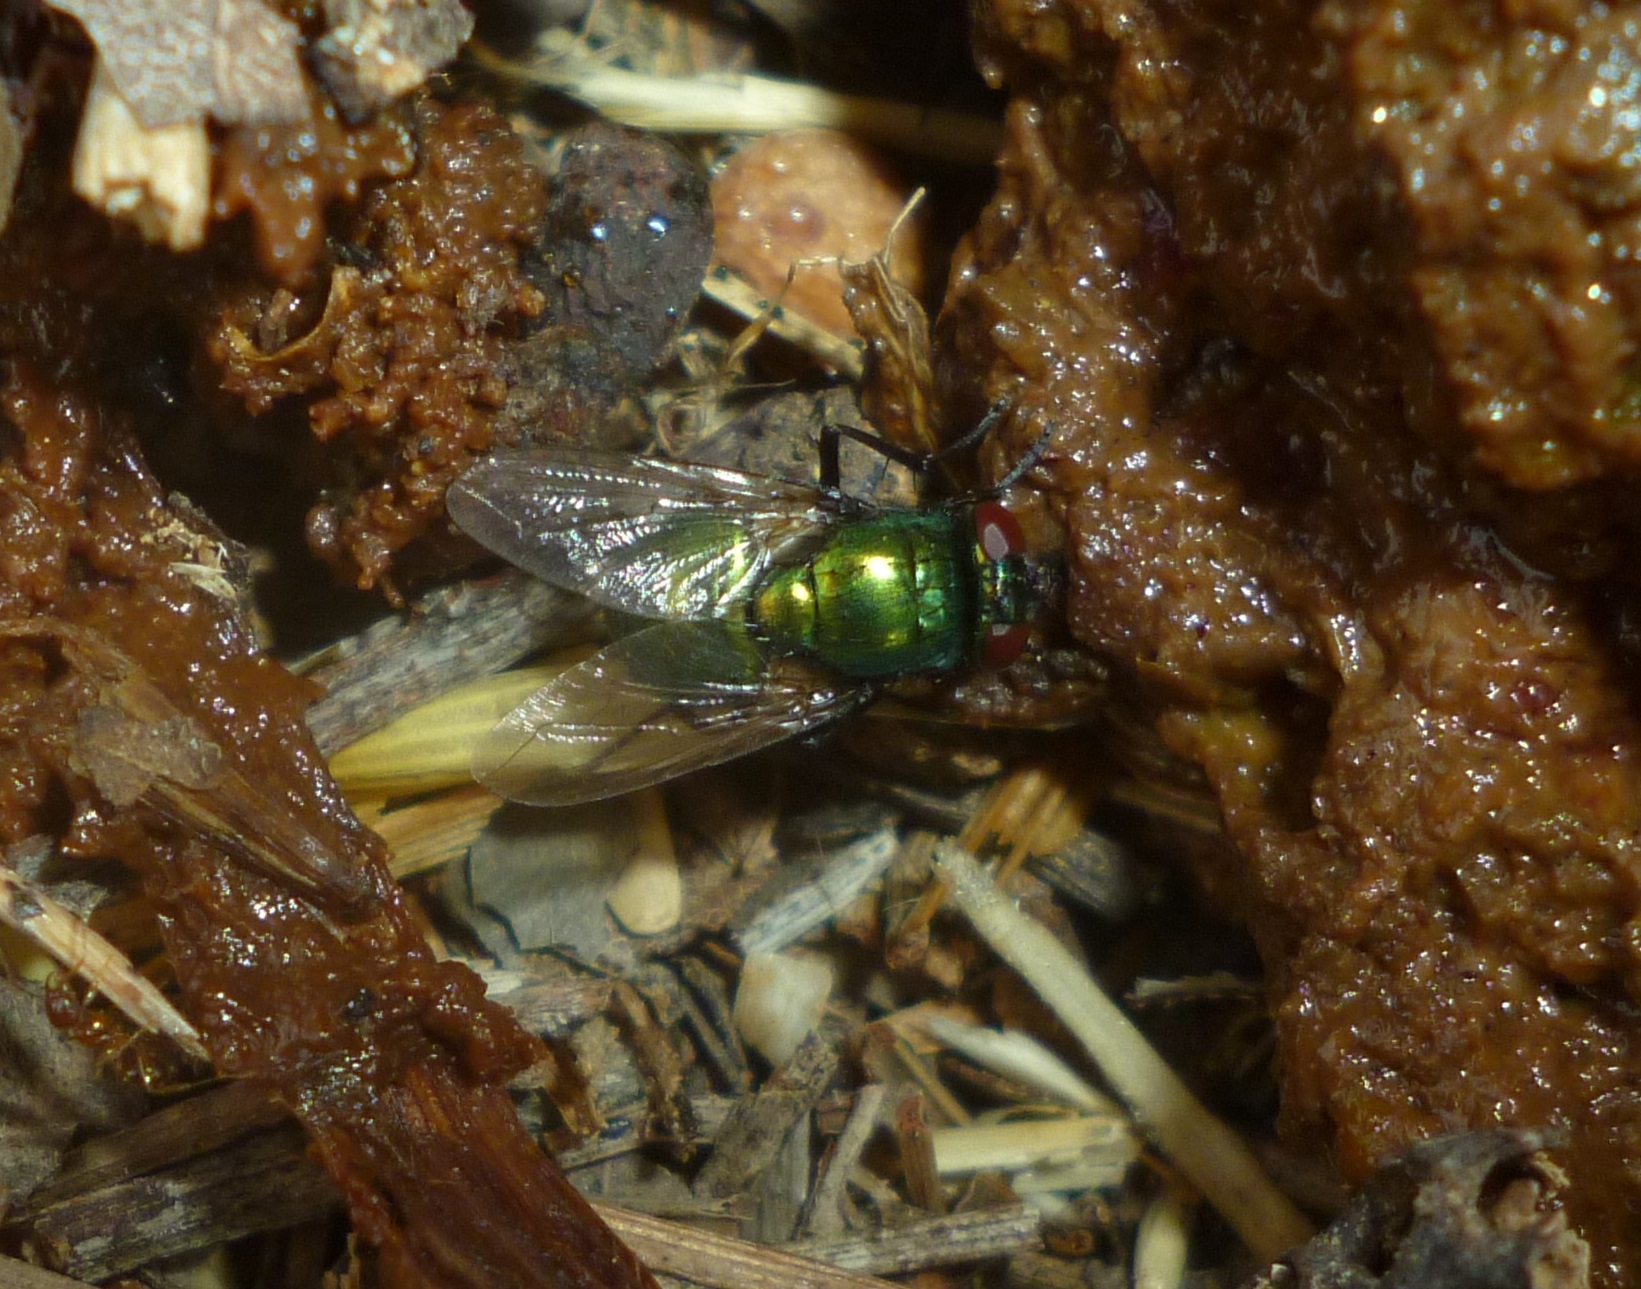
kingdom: Animalia
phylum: Arthropoda
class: Insecta
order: Diptera
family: Muscidae
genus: Neomyia
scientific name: Neomyia cornicina
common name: House fly
